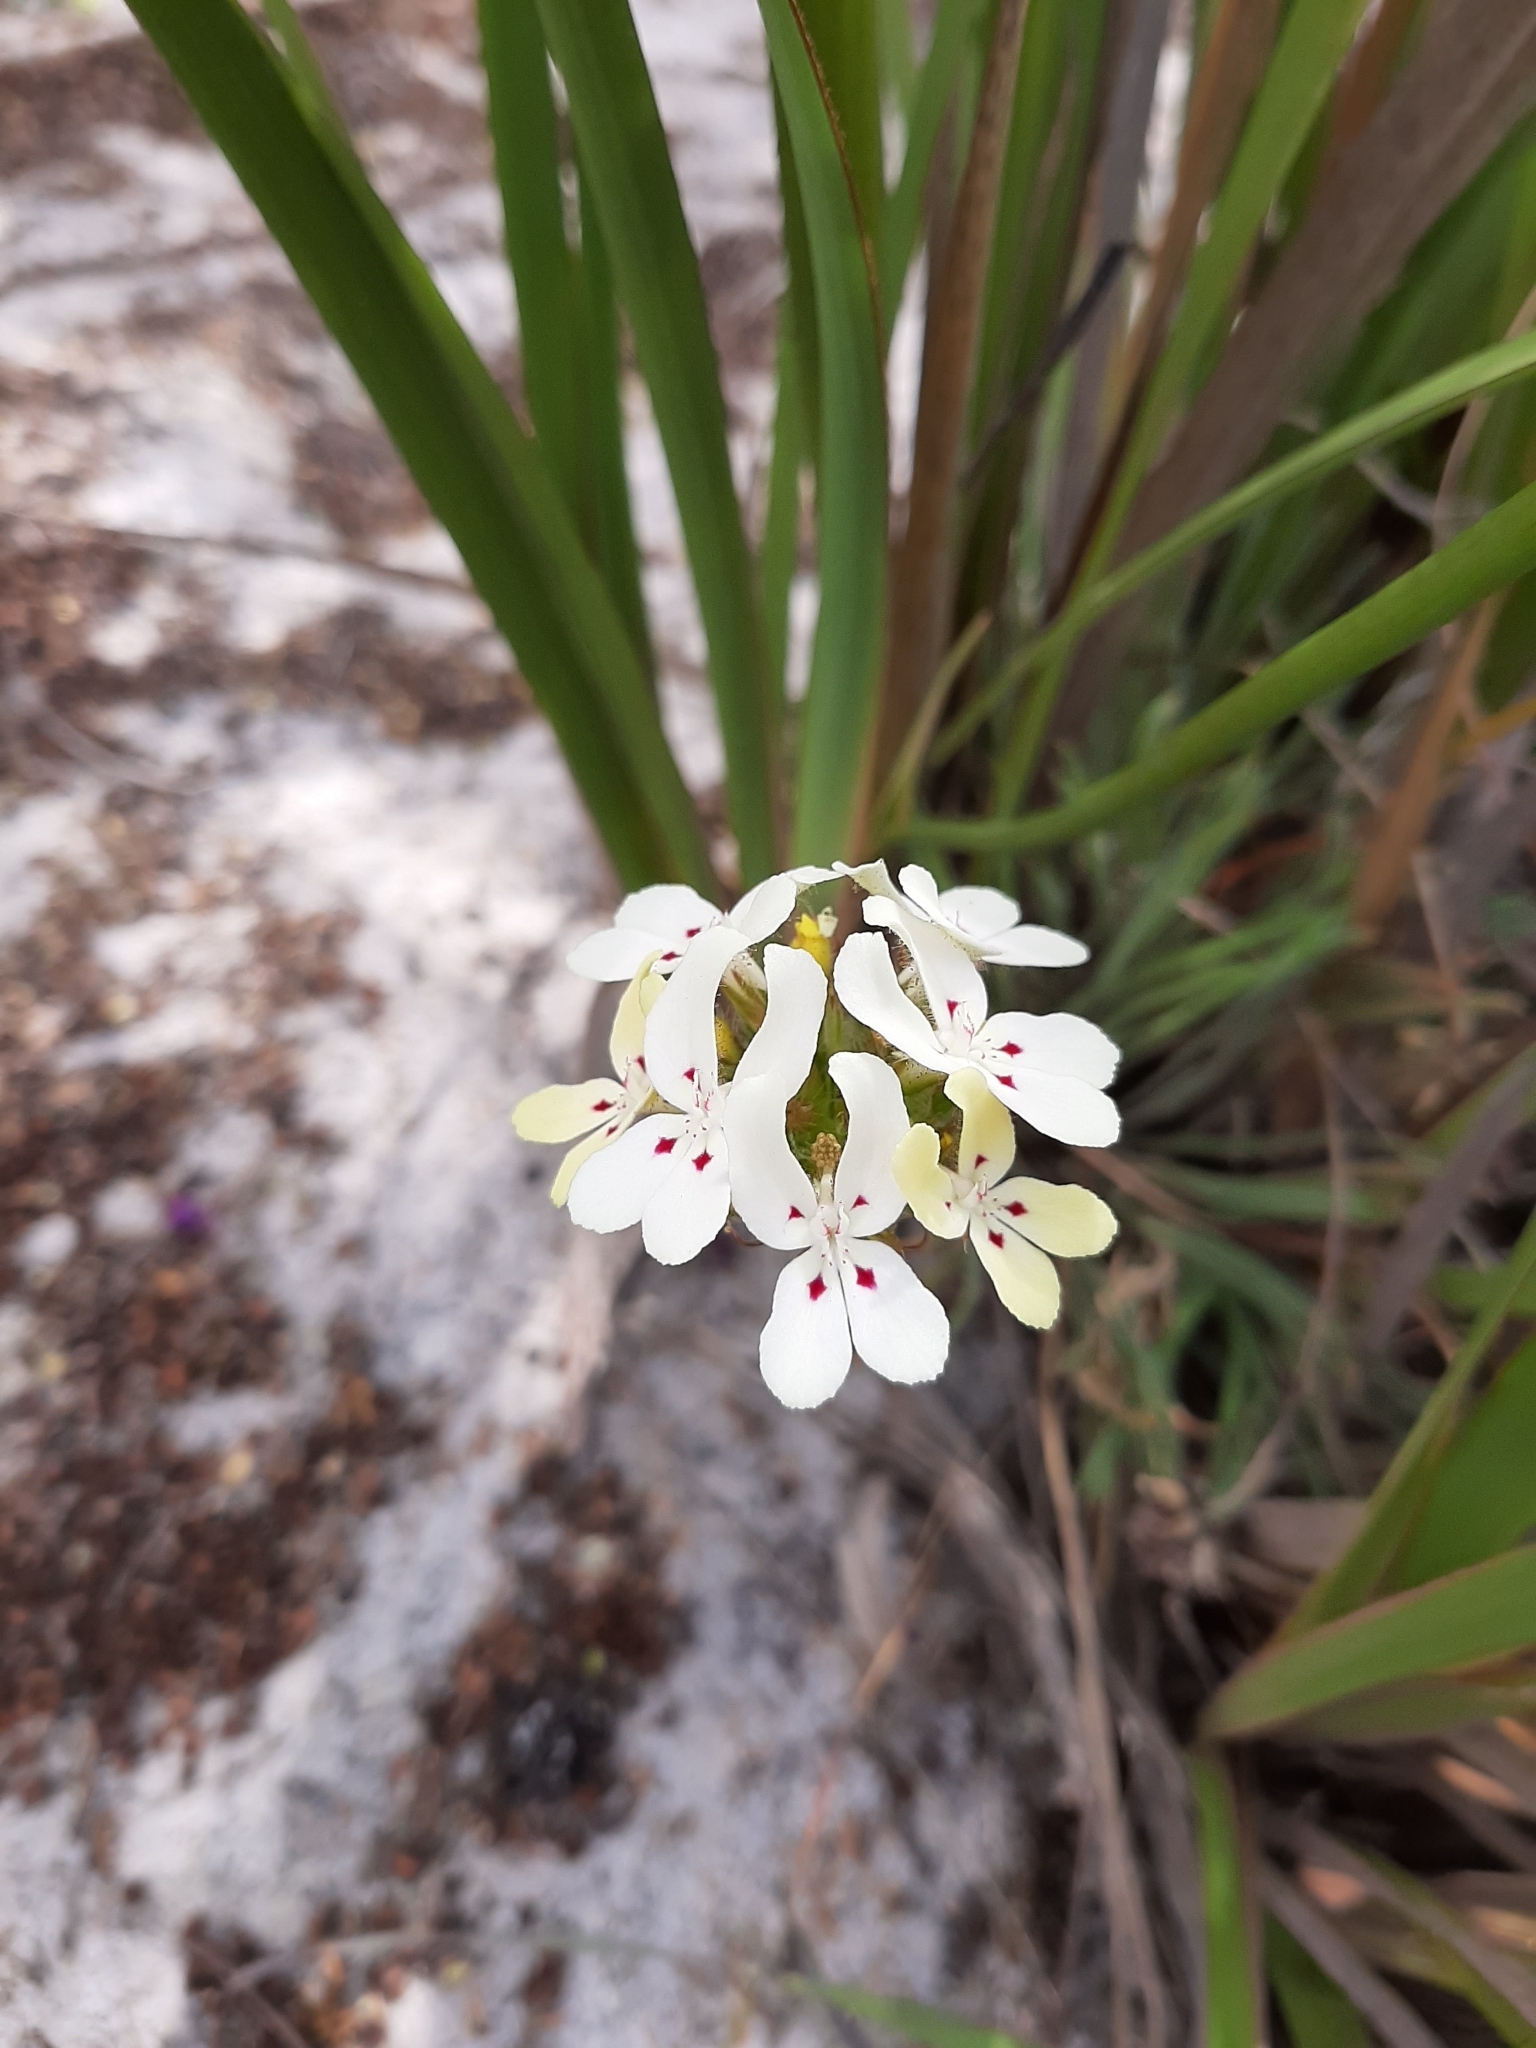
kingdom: Plantae
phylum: Tracheophyta
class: Magnoliopsida
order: Asterales
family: Stylidiaceae
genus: Stylidium
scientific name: Stylidium crossocephalum
